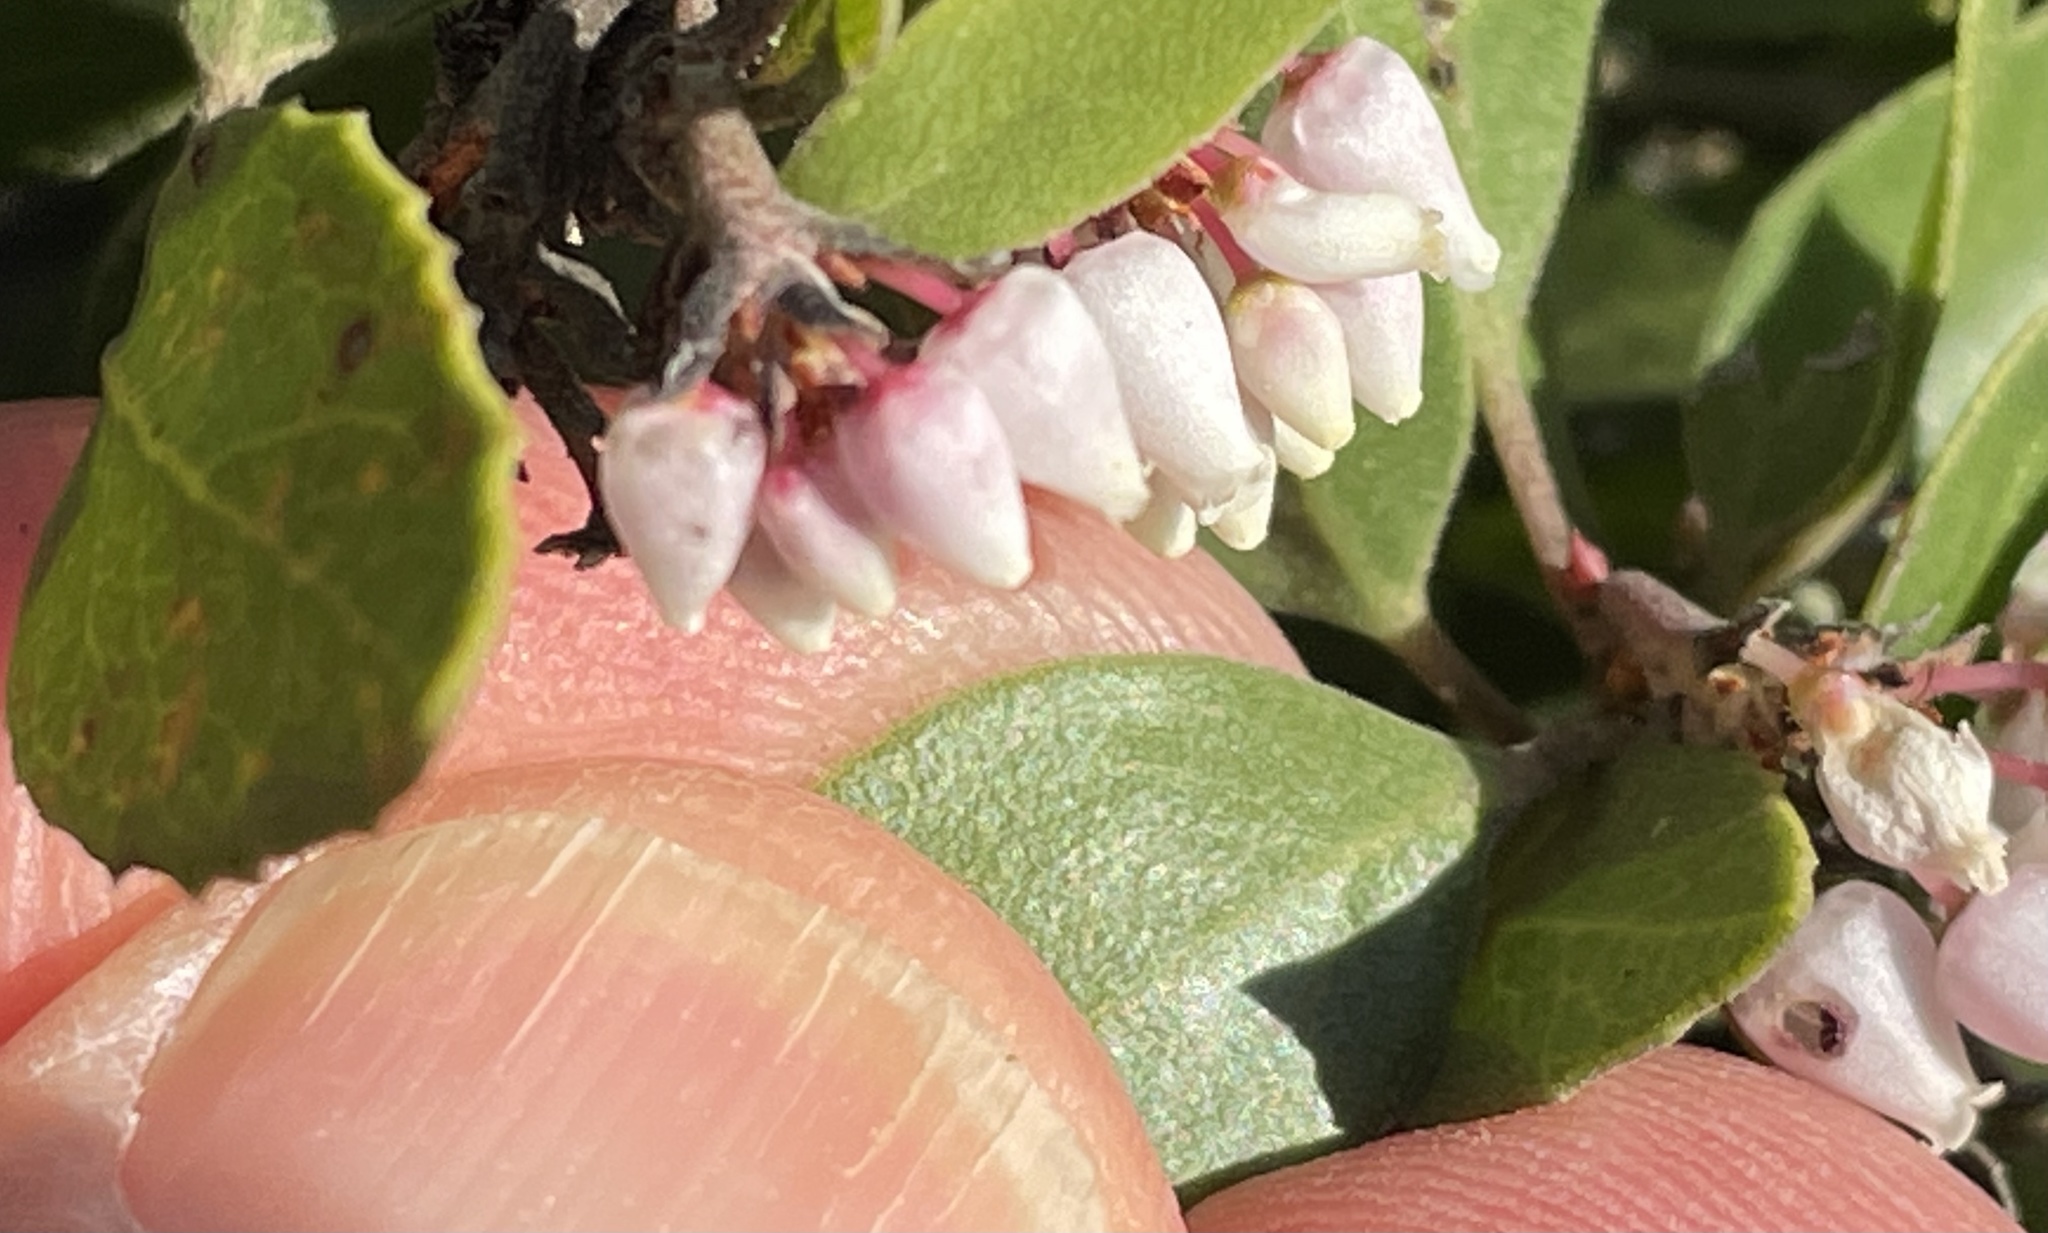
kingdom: Plantae
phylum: Tracheophyta
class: Magnoliopsida
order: Ericales
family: Ericaceae
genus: Arctostaphylos
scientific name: Arctostaphylos hookeri
